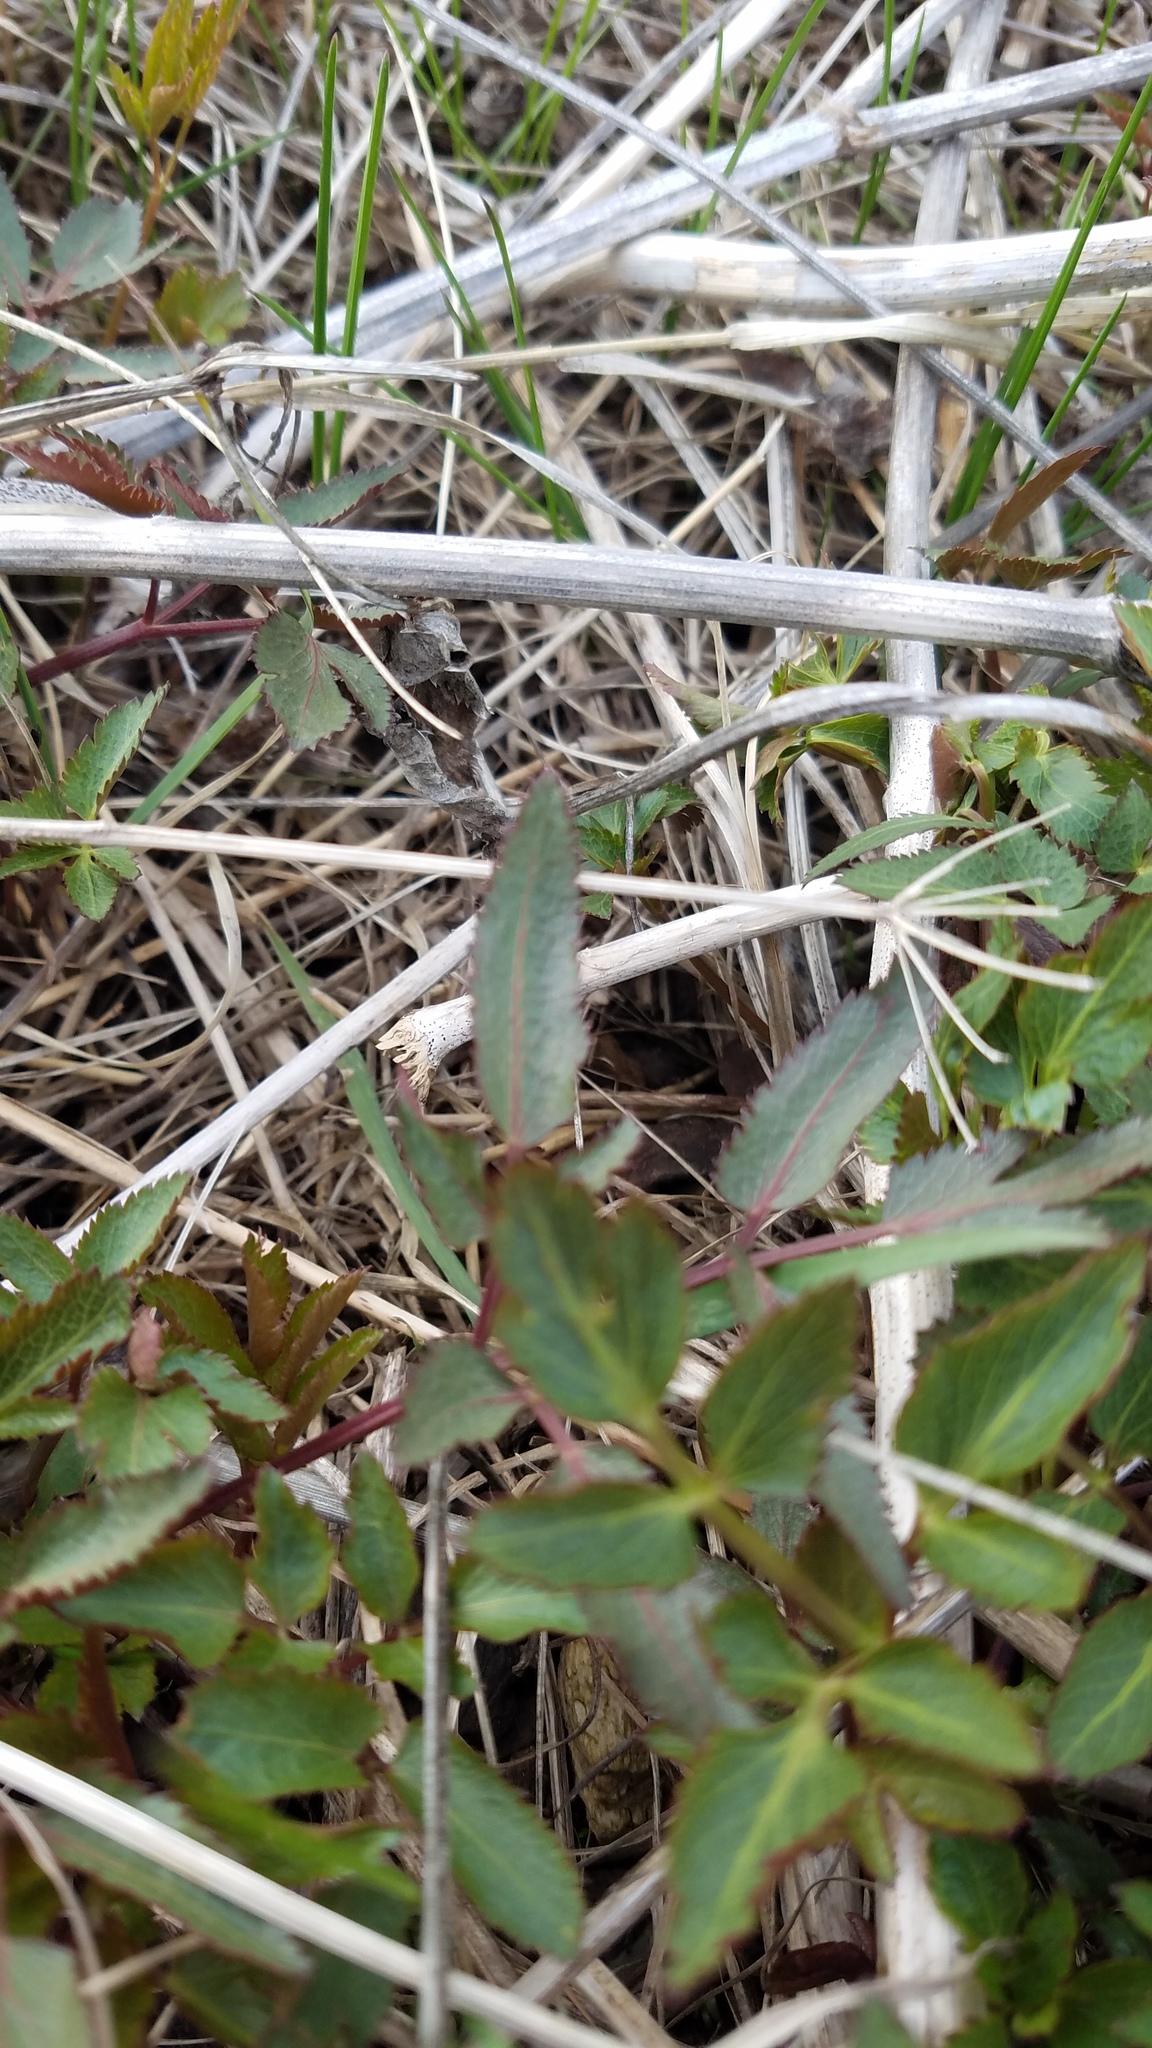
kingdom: Plantae
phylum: Tracheophyta
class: Magnoliopsida
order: Apiales
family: Apiaceae
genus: Zizia
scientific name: Zizia aurea
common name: Golden alexanders
